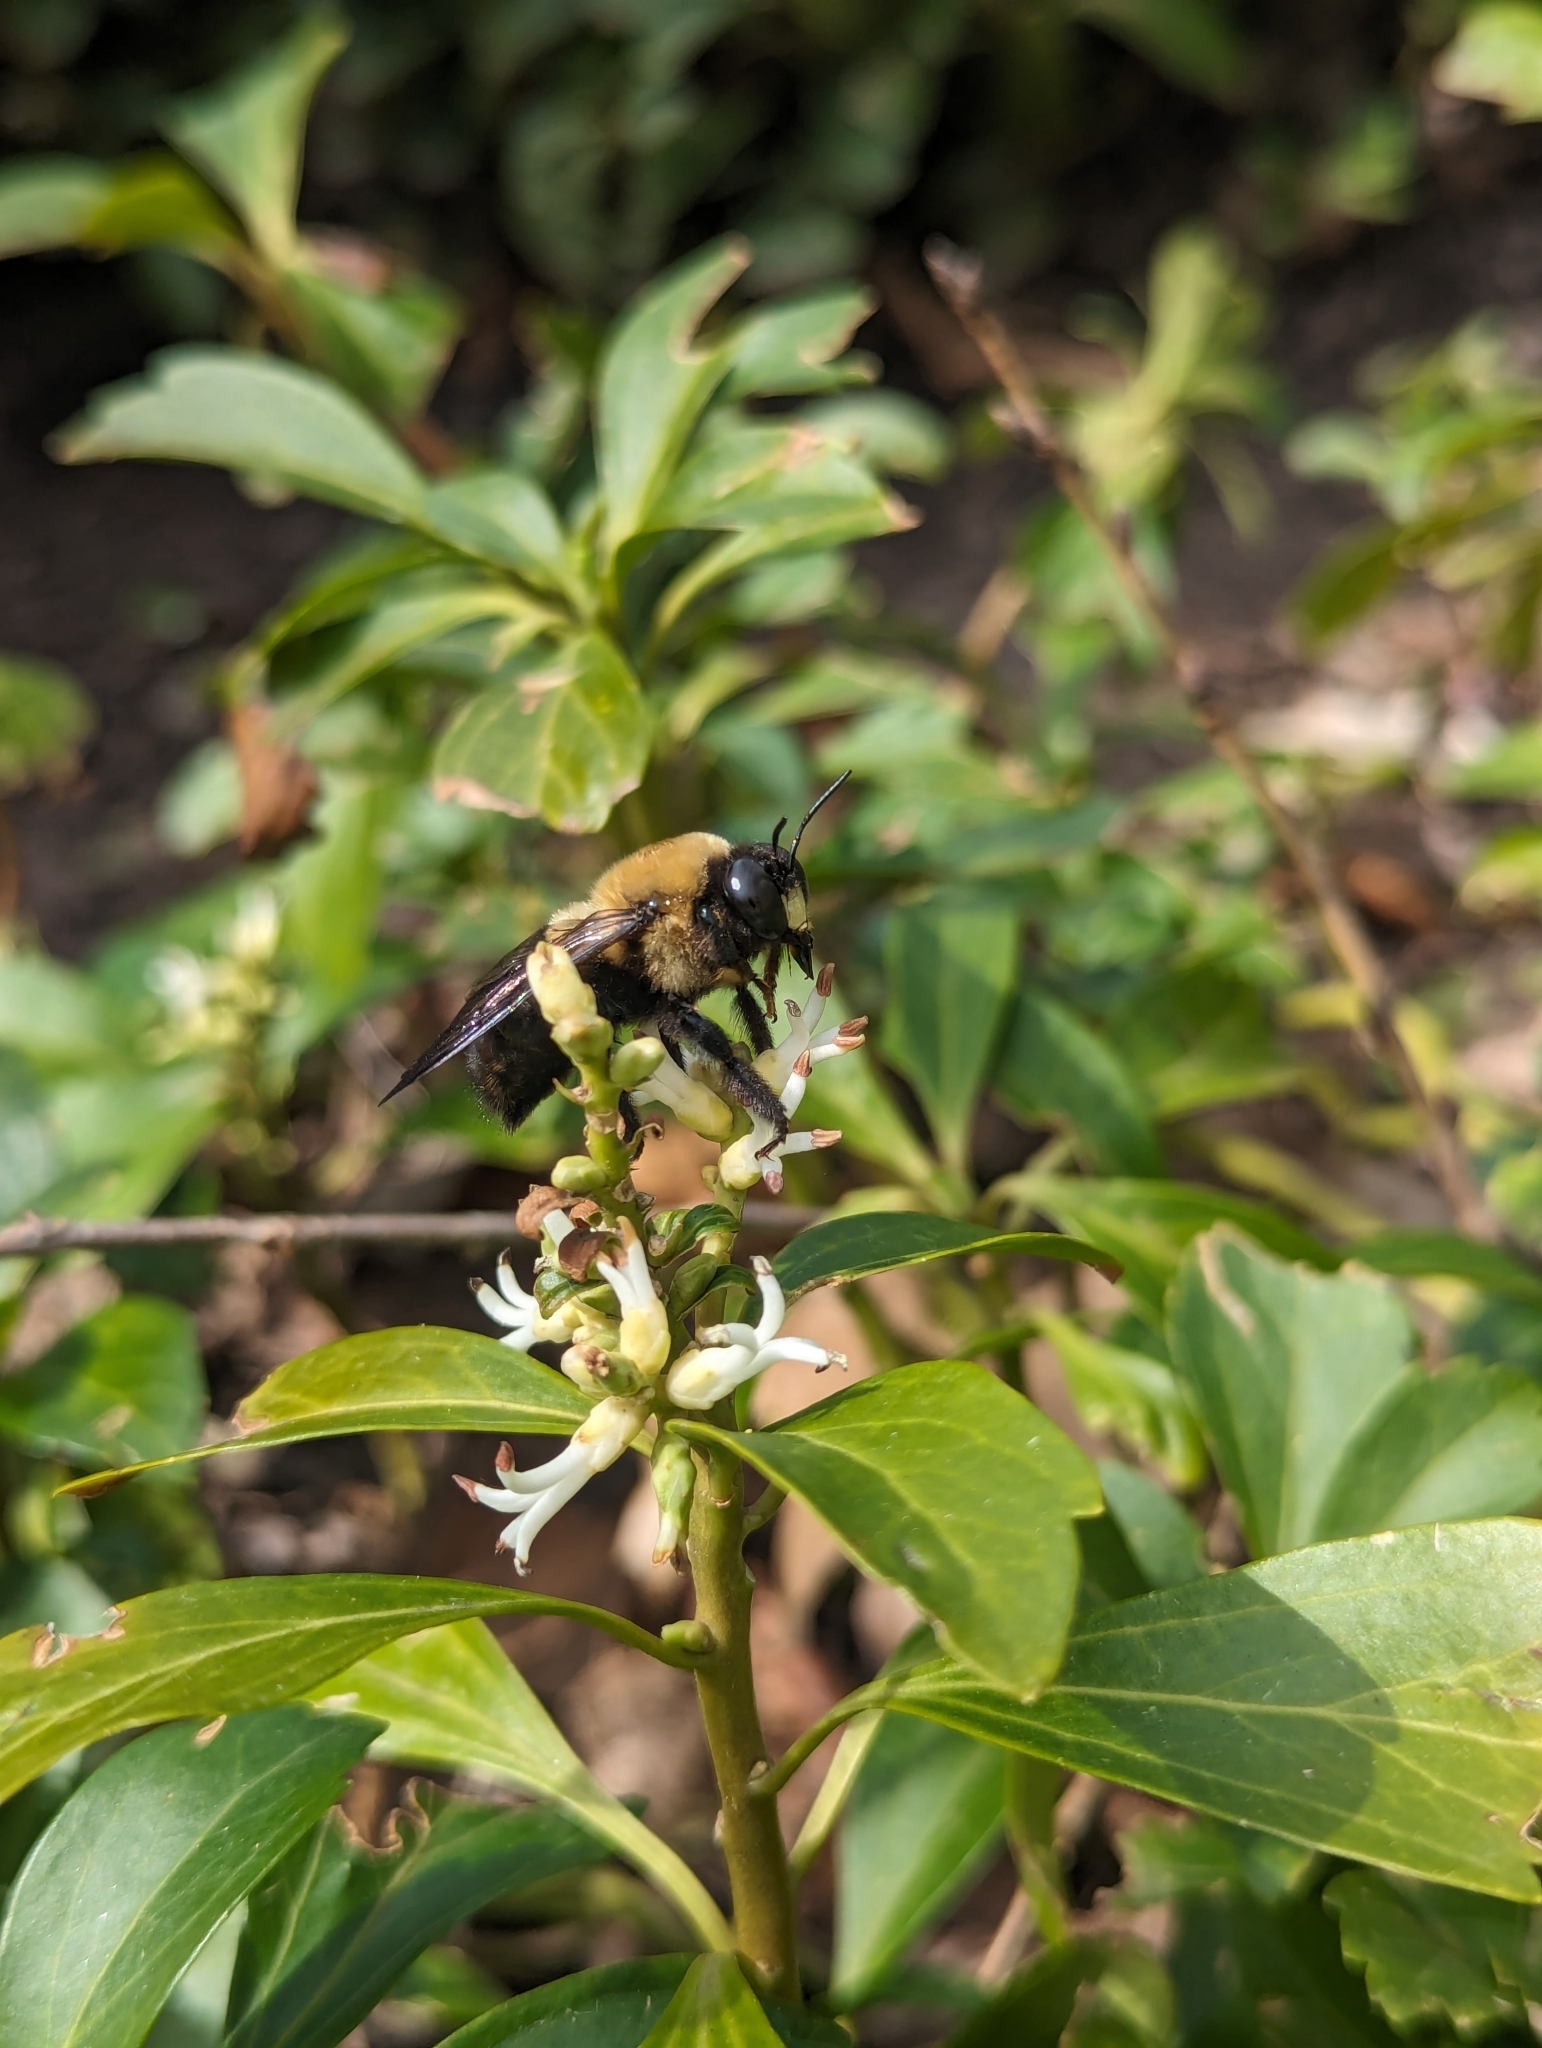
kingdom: Animalia
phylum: Arthropoda
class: Insecta
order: Hymenoptera
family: Apidae
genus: Xylocopa
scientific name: Xylocopa virginica
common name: Carpenter bee
